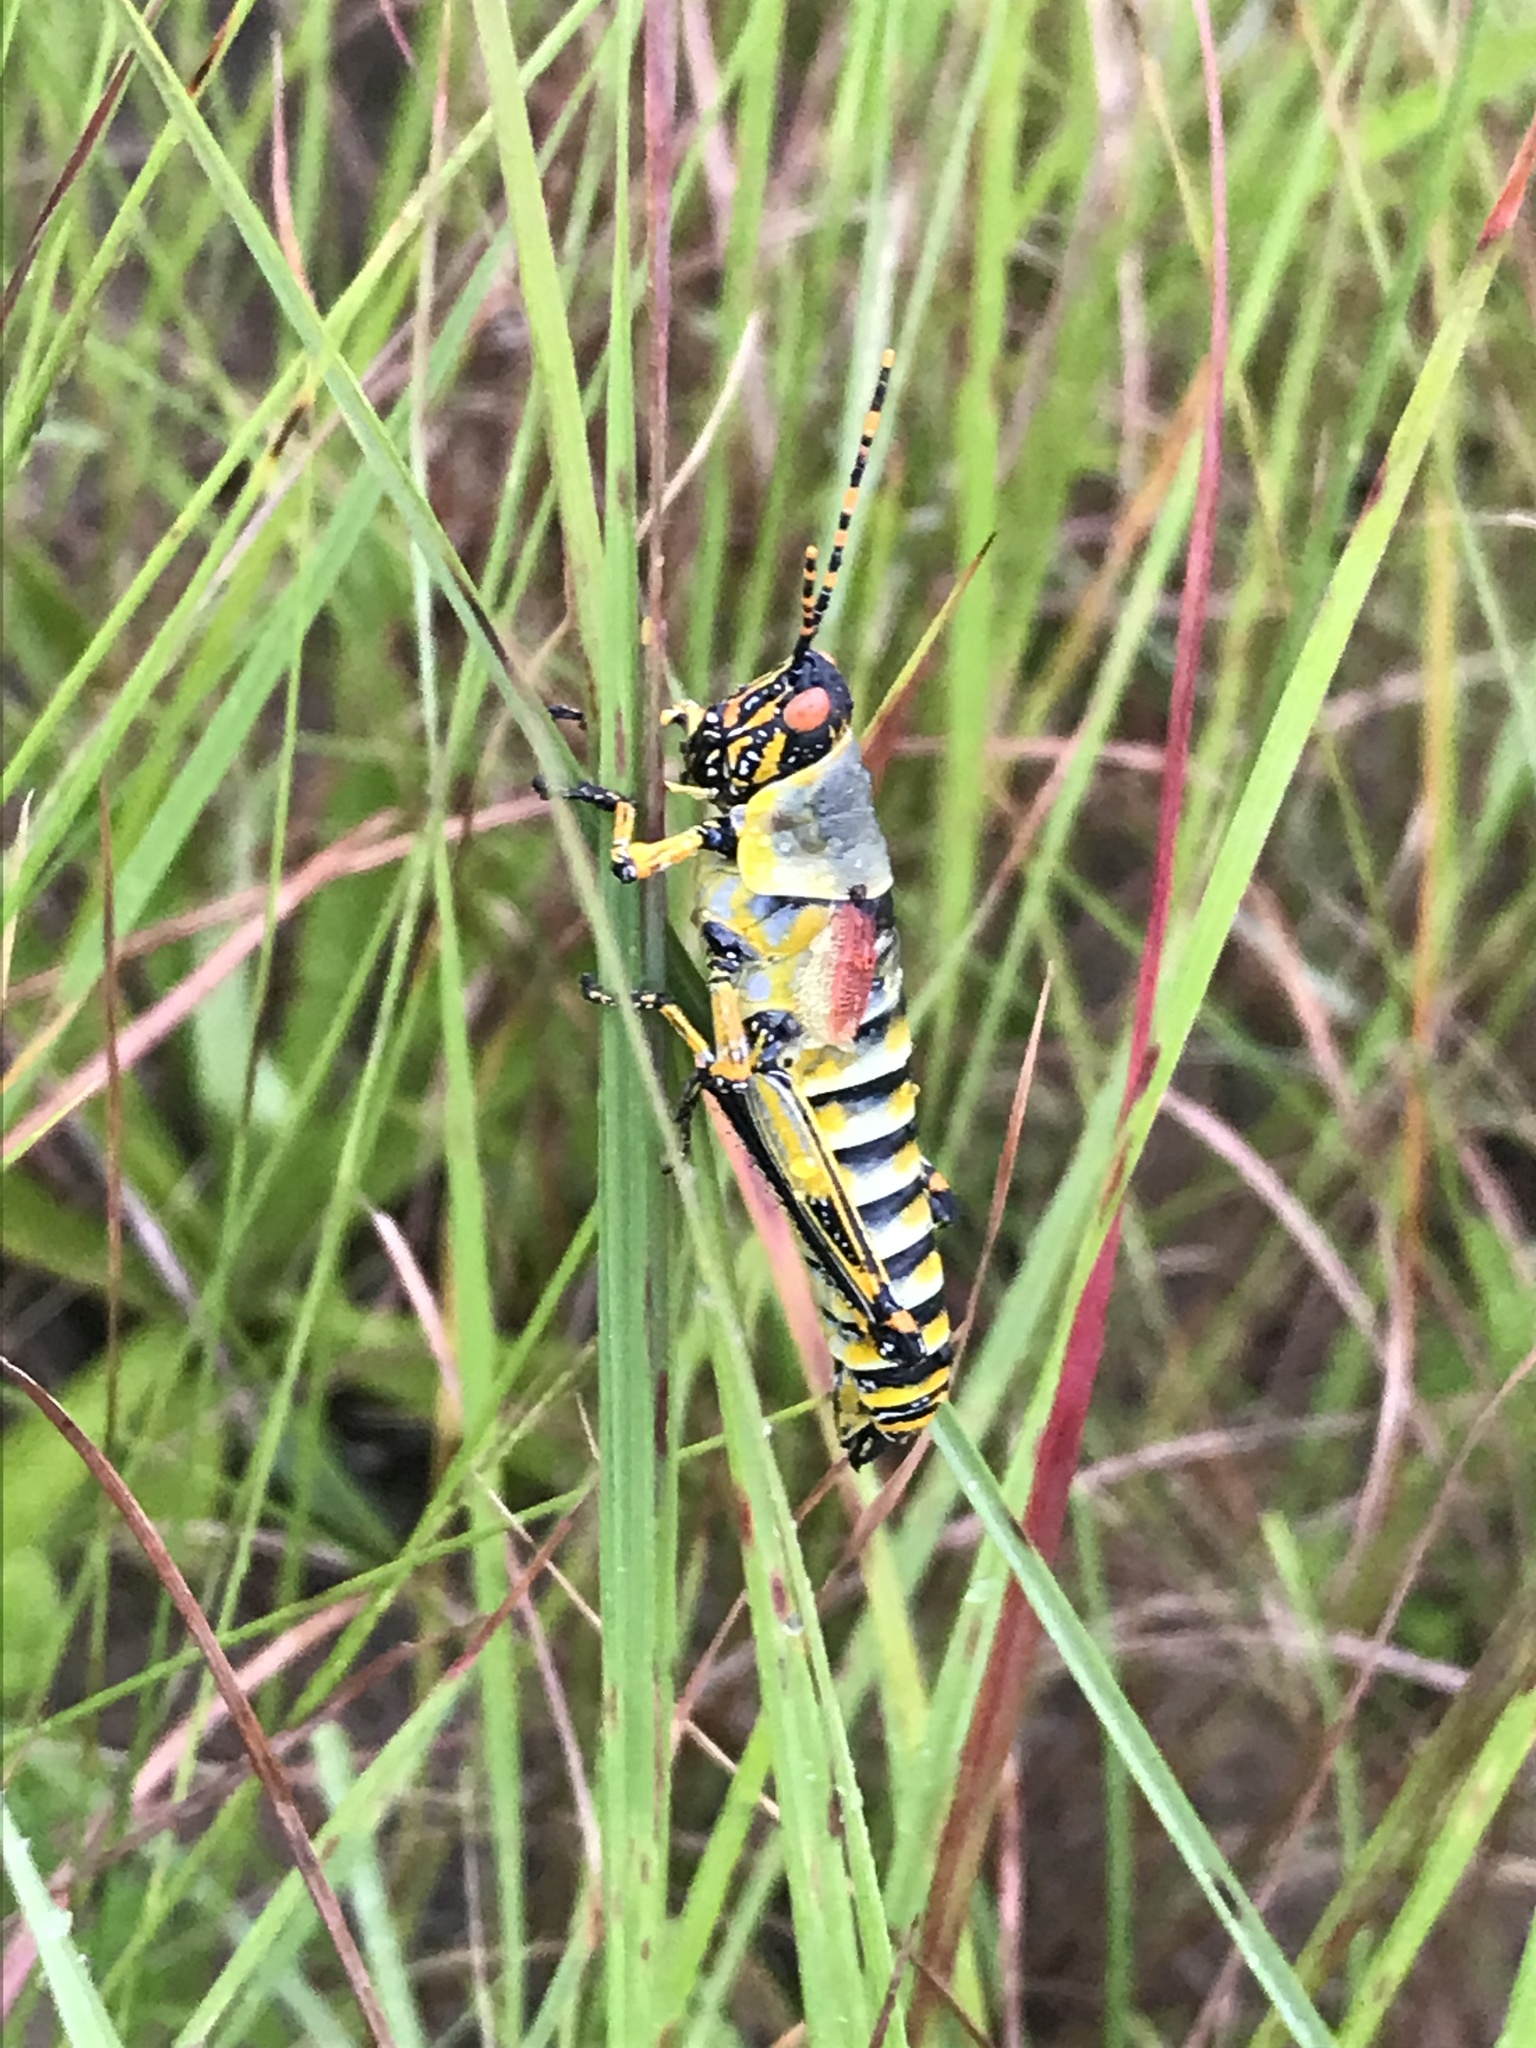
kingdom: Animalia
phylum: Arthropoda
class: Insecta
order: Orthoptera
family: Pyrgomorphidae
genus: Zonocerus
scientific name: Zonocerus elegans
